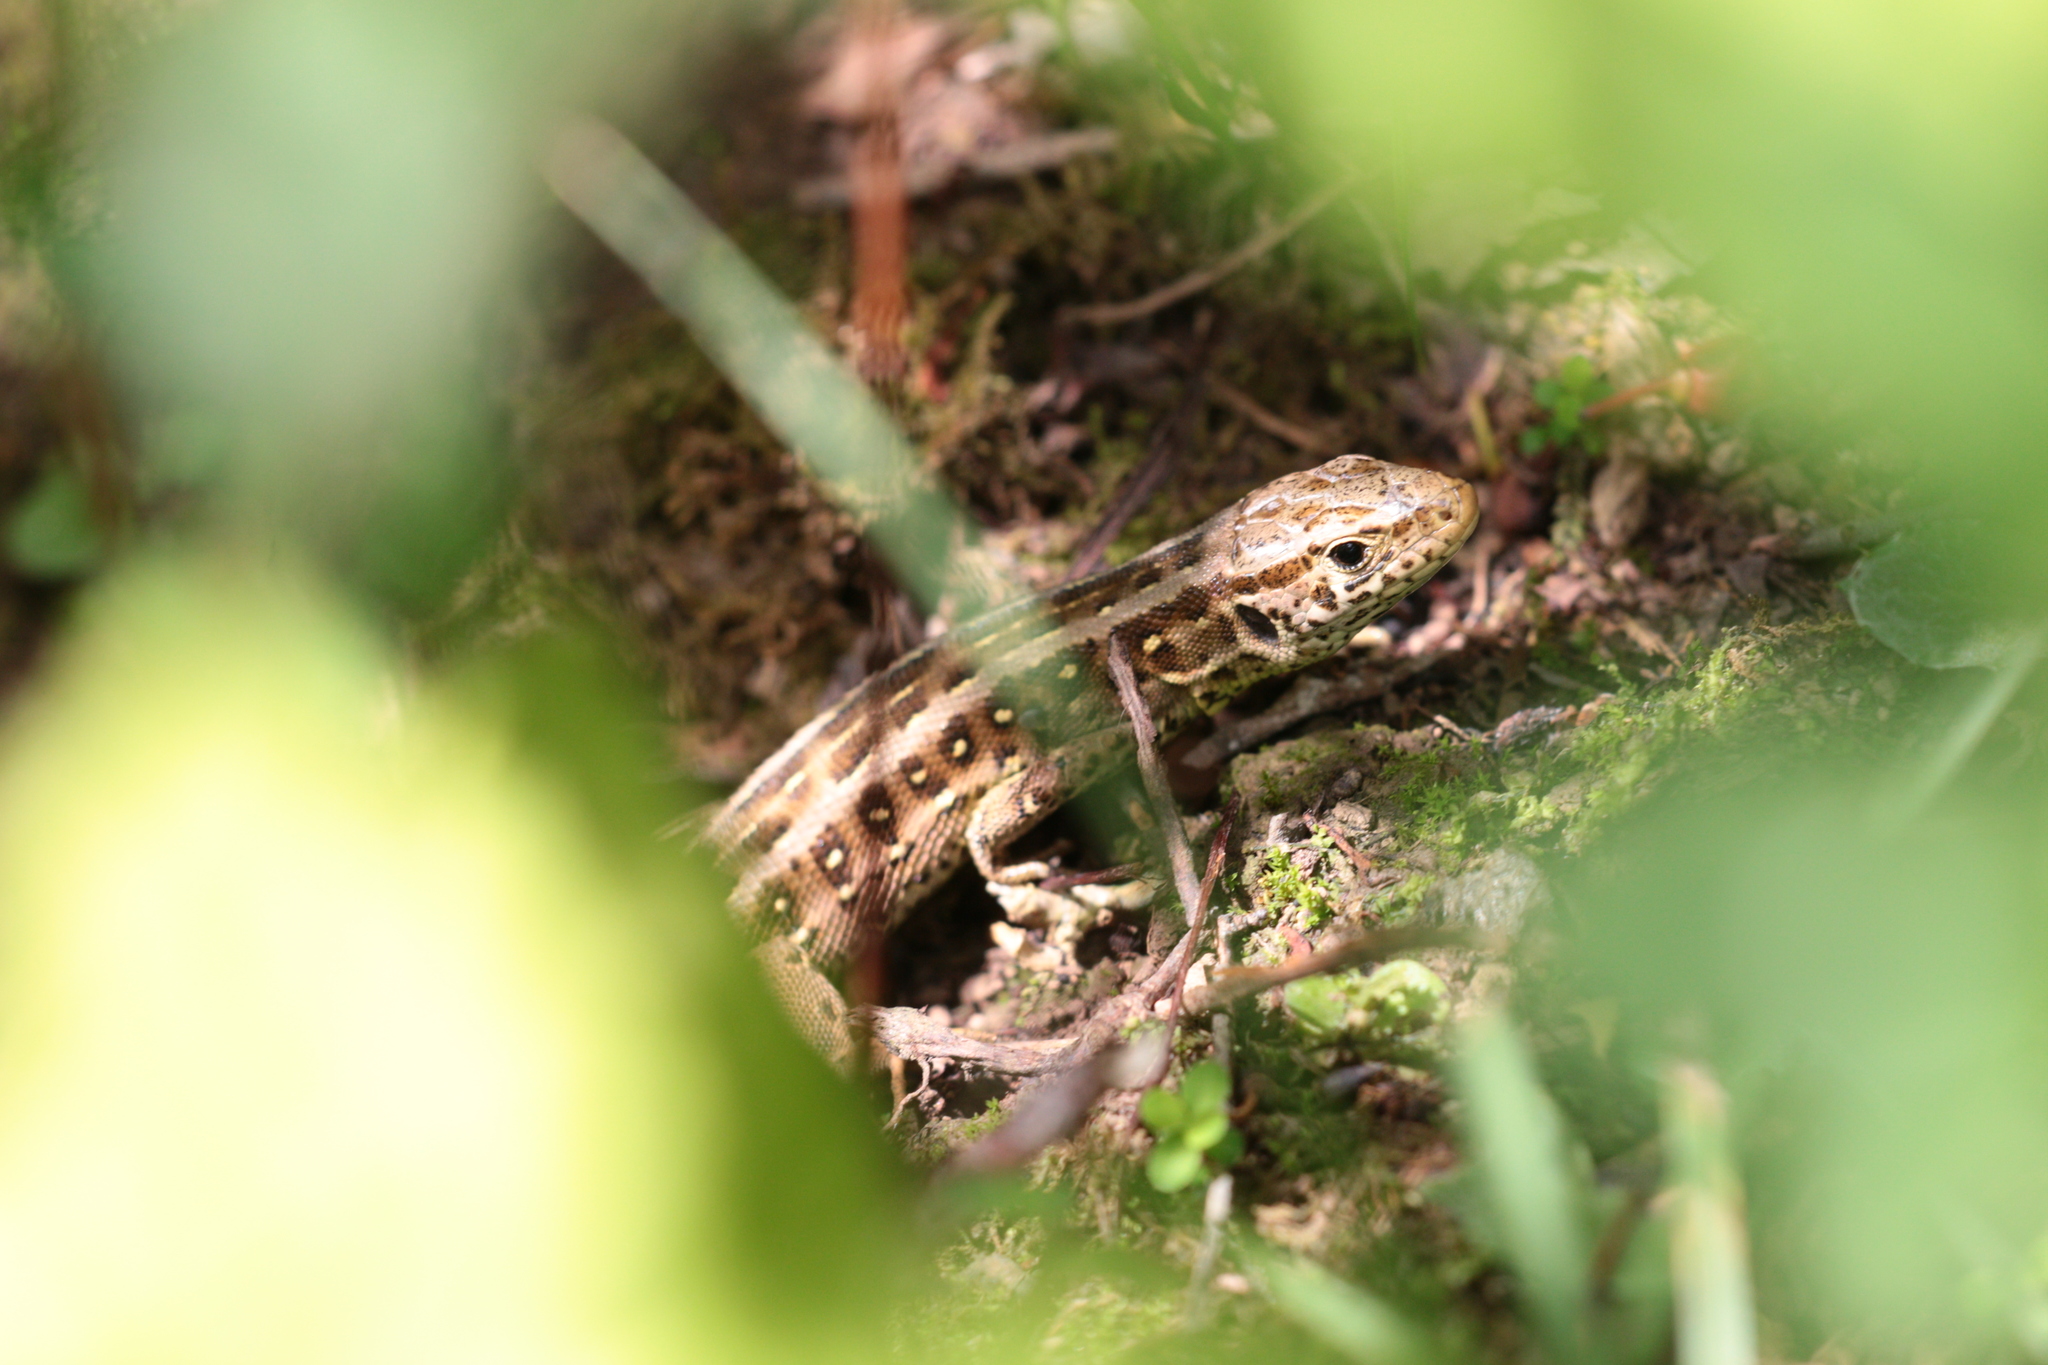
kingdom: Animalia
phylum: Chordata
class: Squamata
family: Lacertidae
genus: Lacerta
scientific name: Lacerta agilis
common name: Sand lizard
